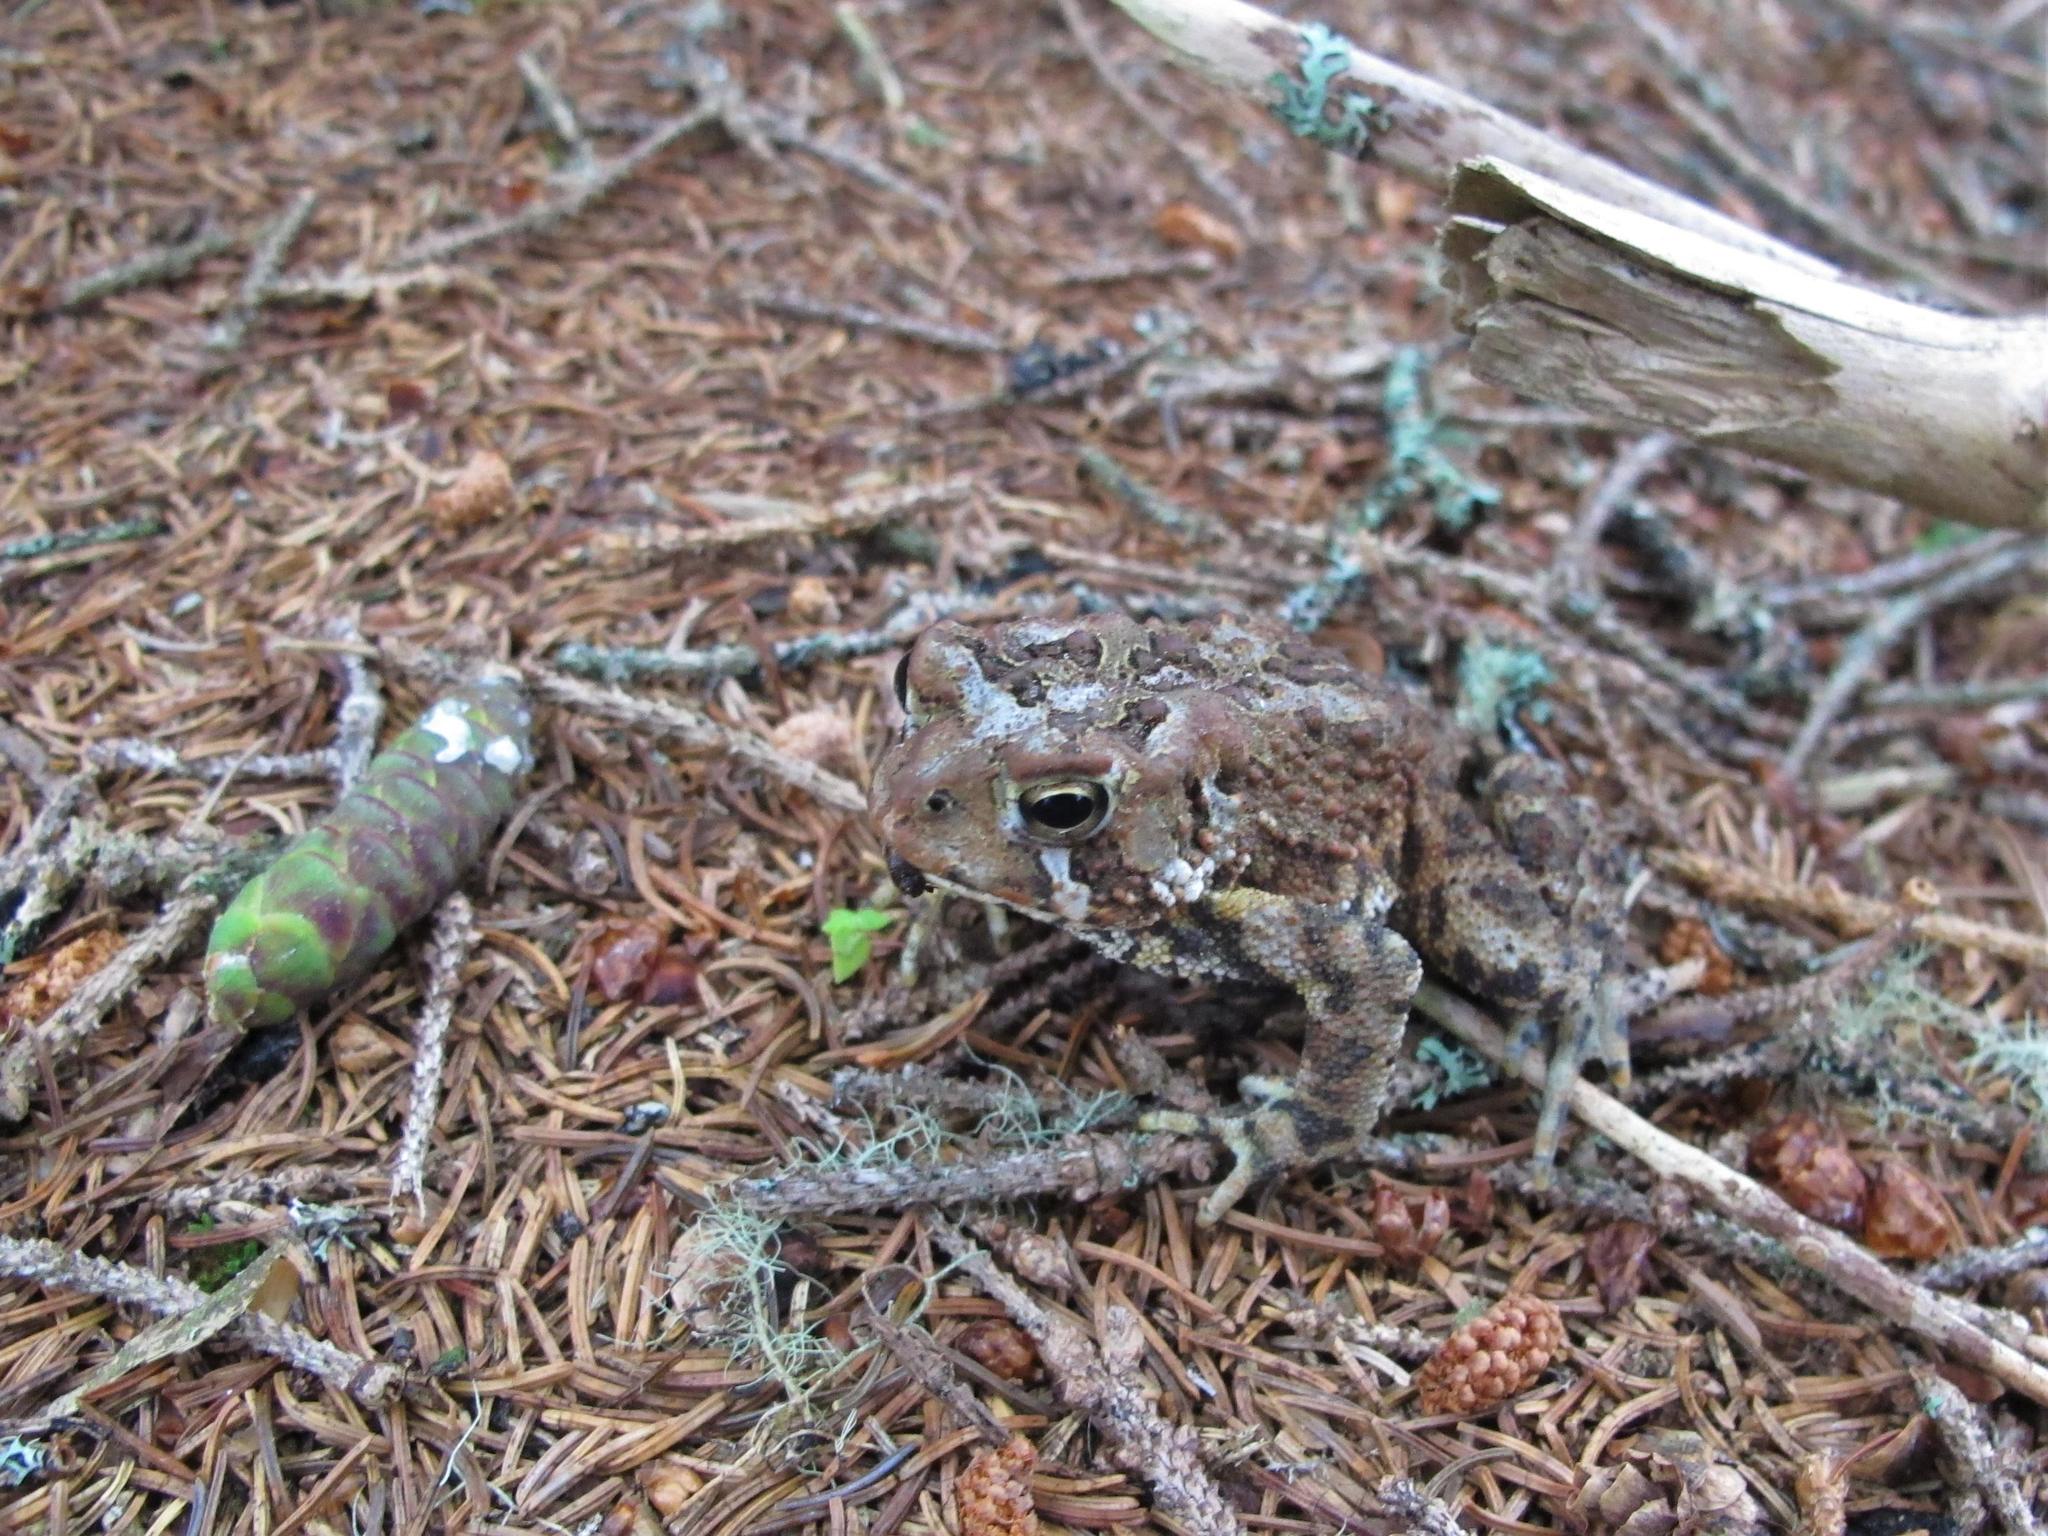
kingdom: Animalia
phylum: Chordata
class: Amphibia
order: Anura
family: Bufonidae
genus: Anaxyrus
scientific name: Anaxyrus americanus
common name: American toad
